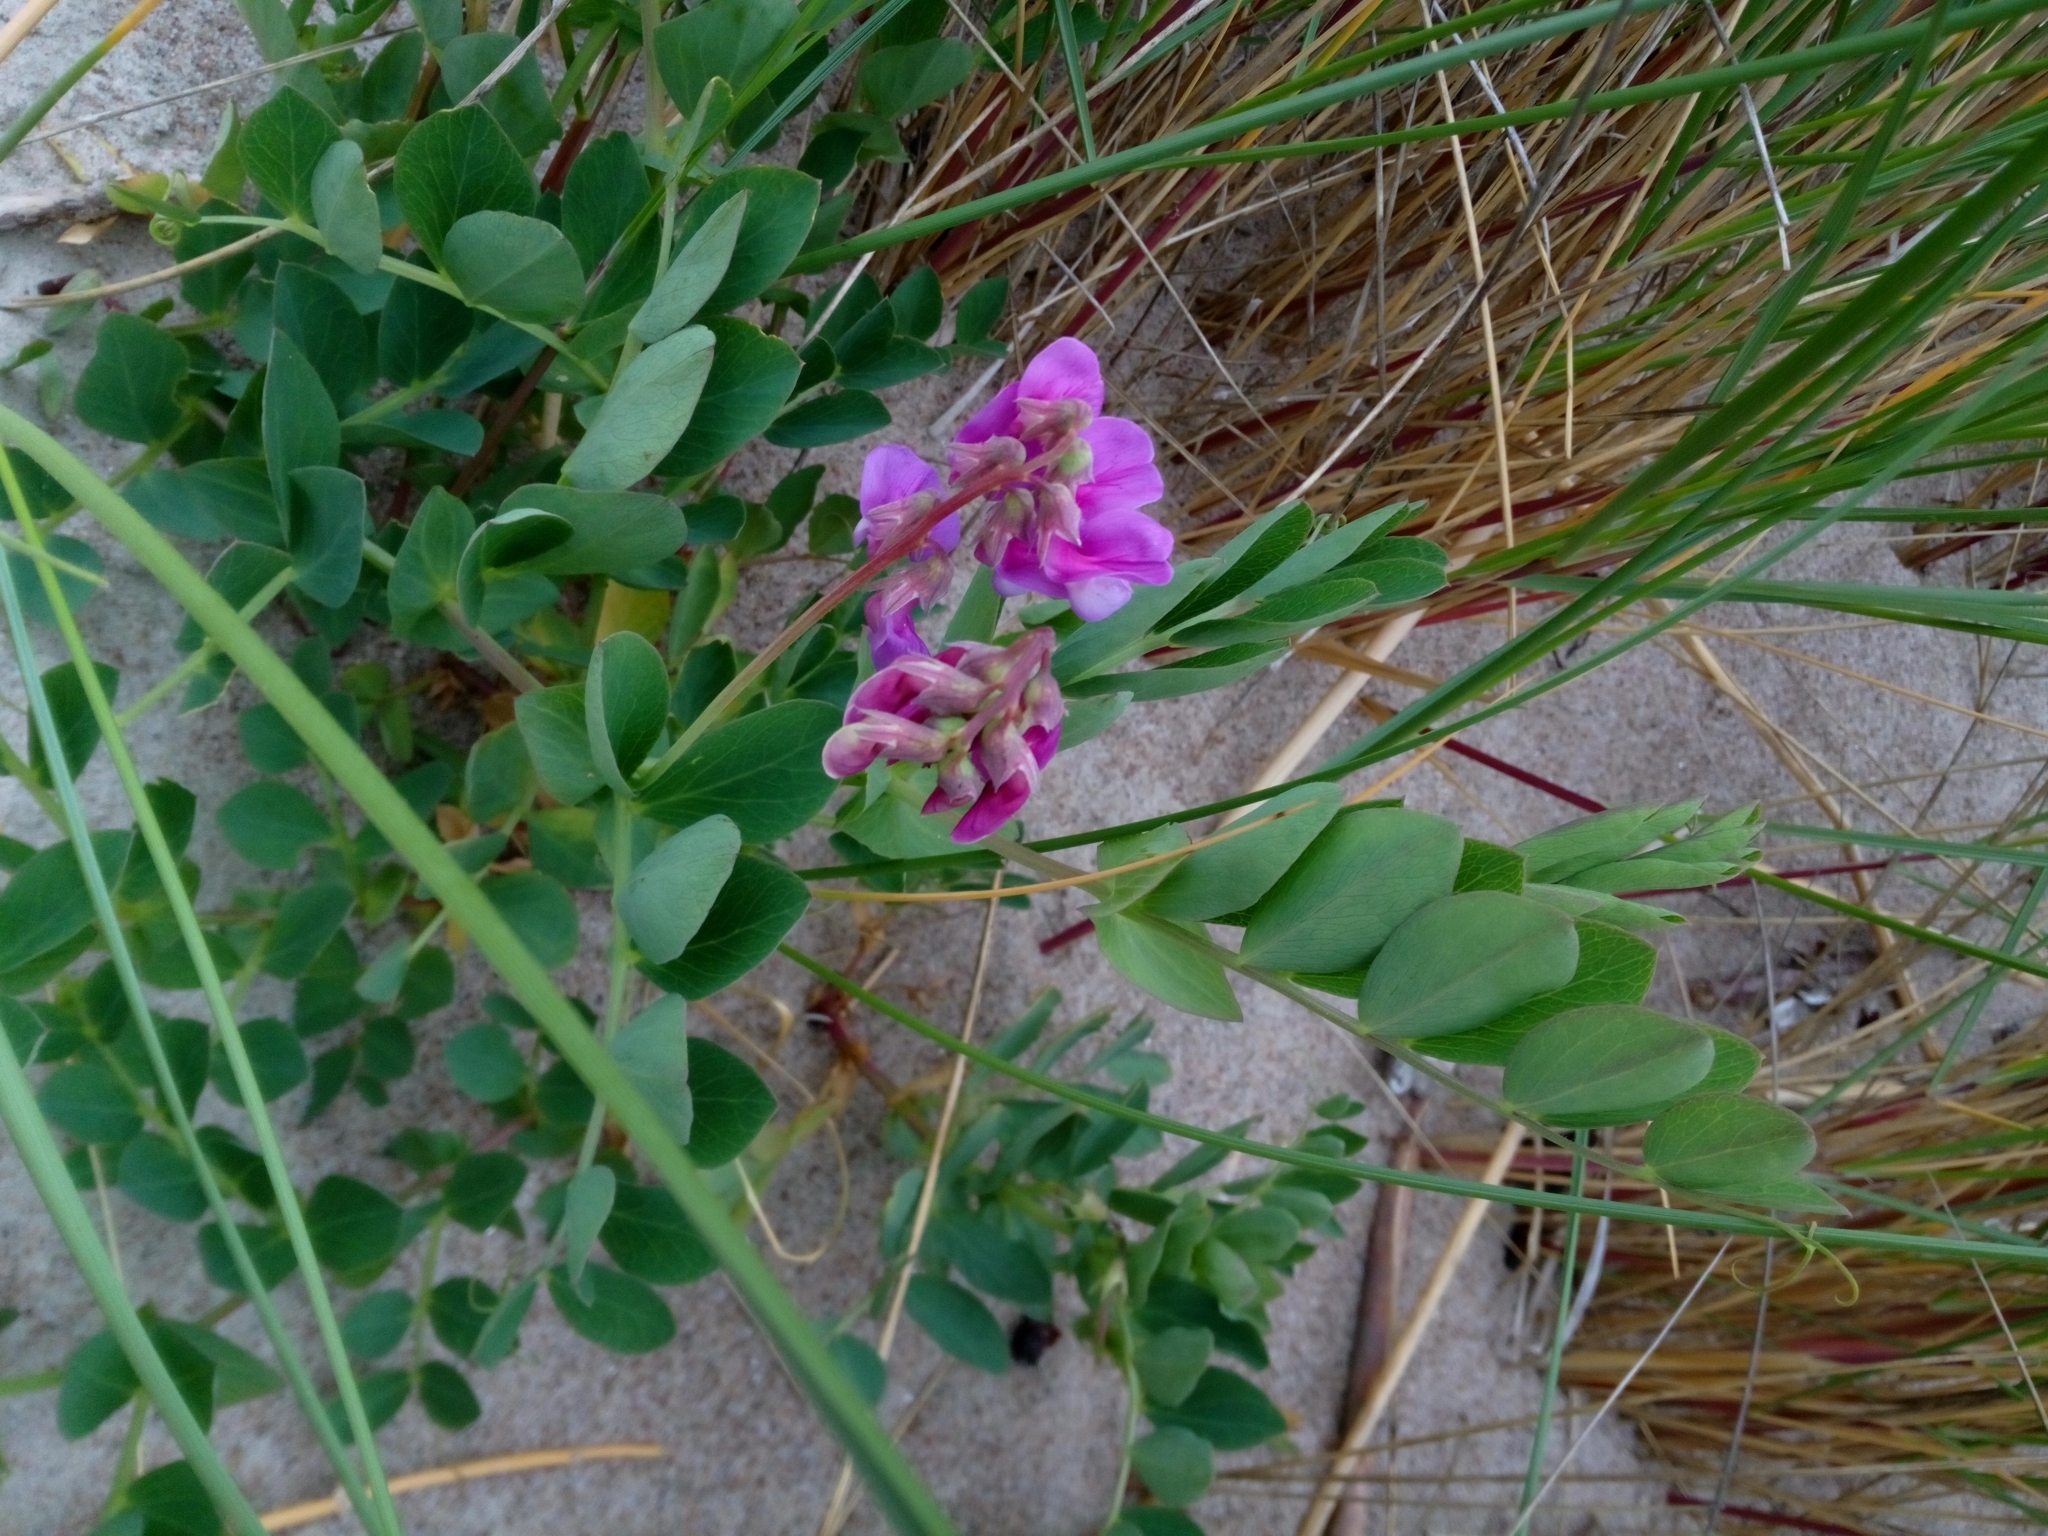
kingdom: Plantae
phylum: Tracheophyta
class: Magnoliopsida
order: Fabales
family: Fabaceae
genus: Lathyrus
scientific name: Lathyrus japonicus
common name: Sea pea
